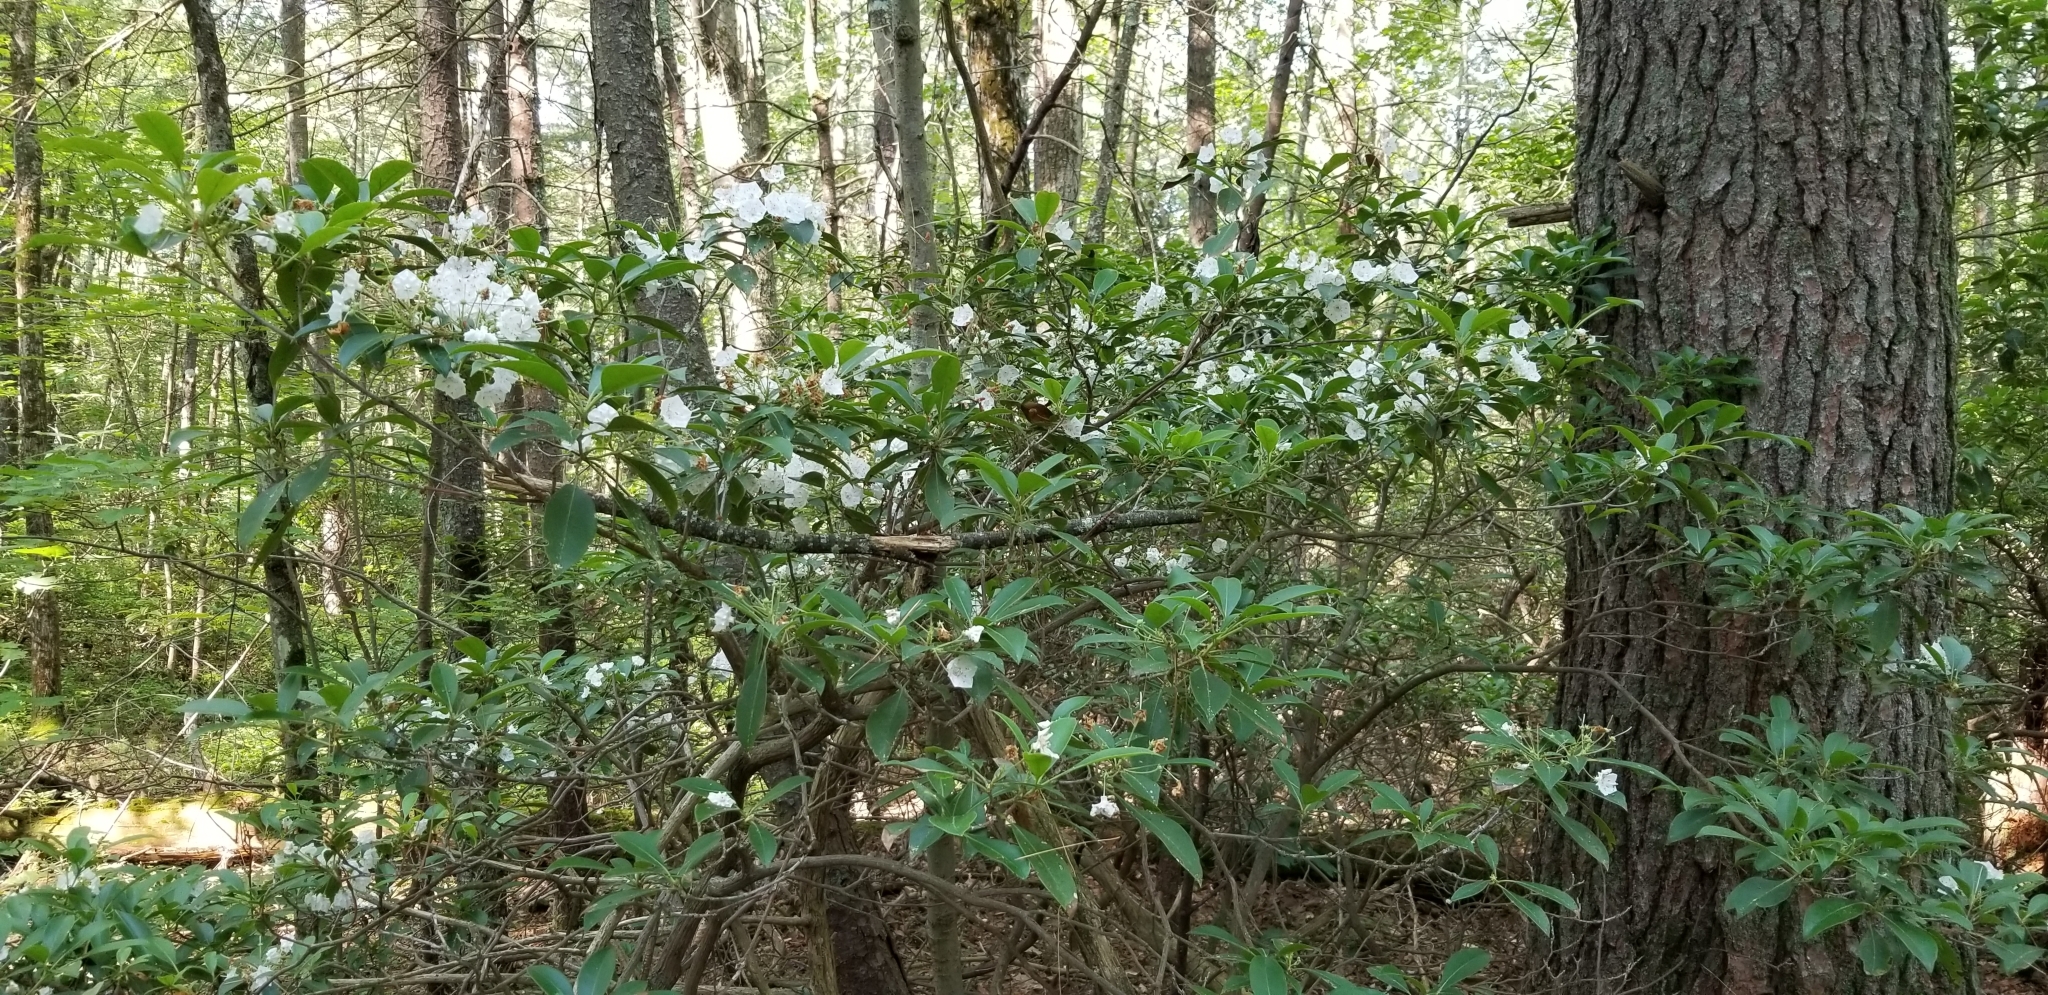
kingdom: Plantae
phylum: Tracheophyta
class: Magnoliopsida
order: Ericales
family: Ericaceae
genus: Kalmia
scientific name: Kalmia latifolia
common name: Mountain-laurel
